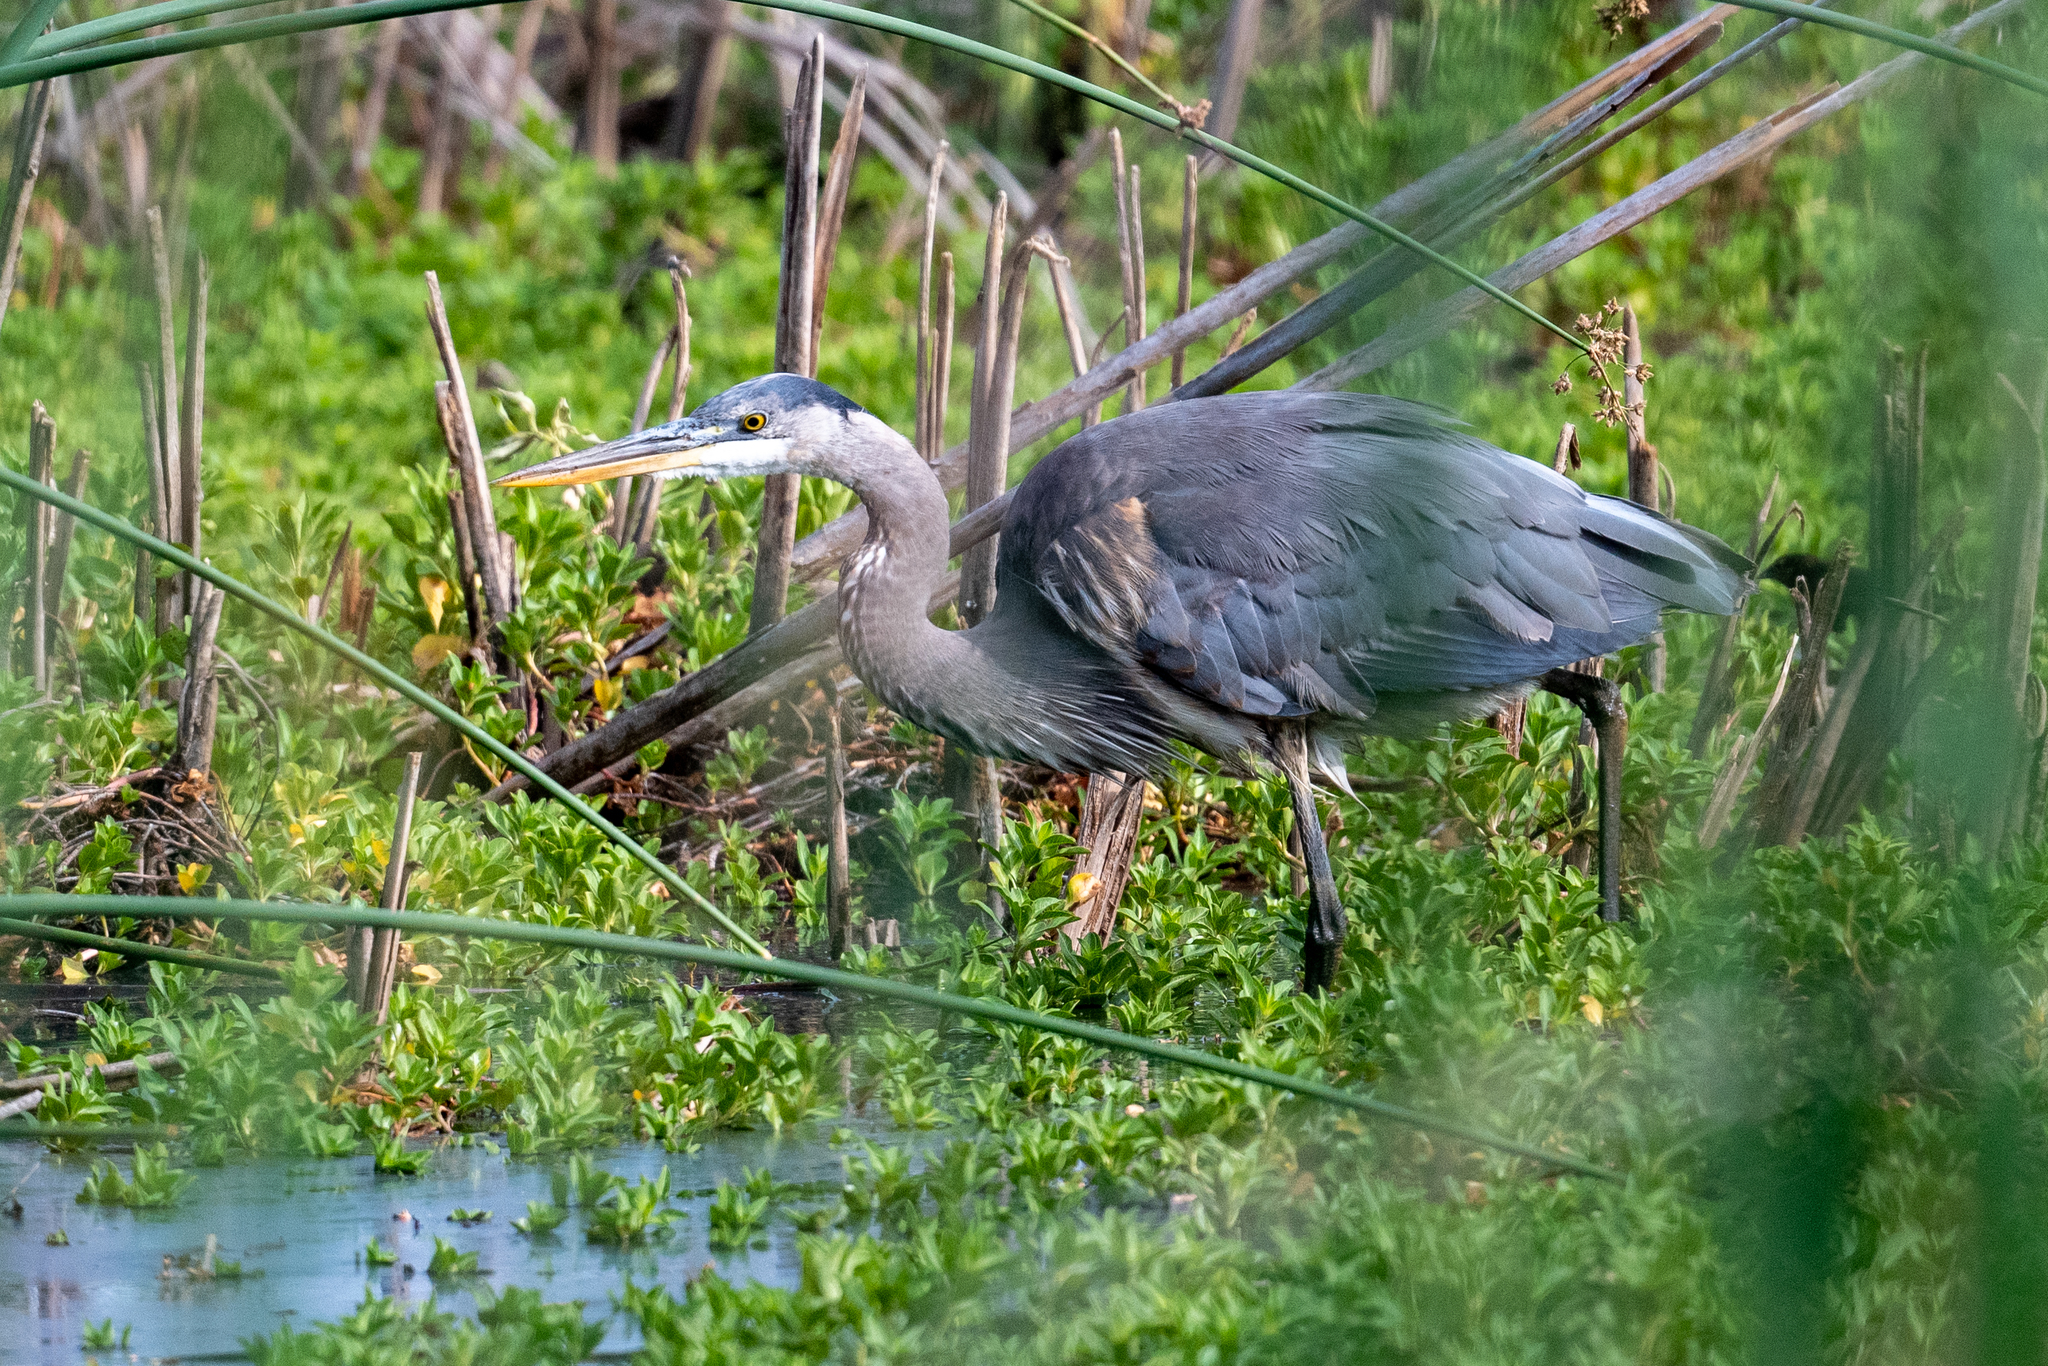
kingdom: Animalia
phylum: Chordata
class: Aves
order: Pelecaniformes
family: Ardeidae
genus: Ardea
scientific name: Ardea herodias
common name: Great blue heron
